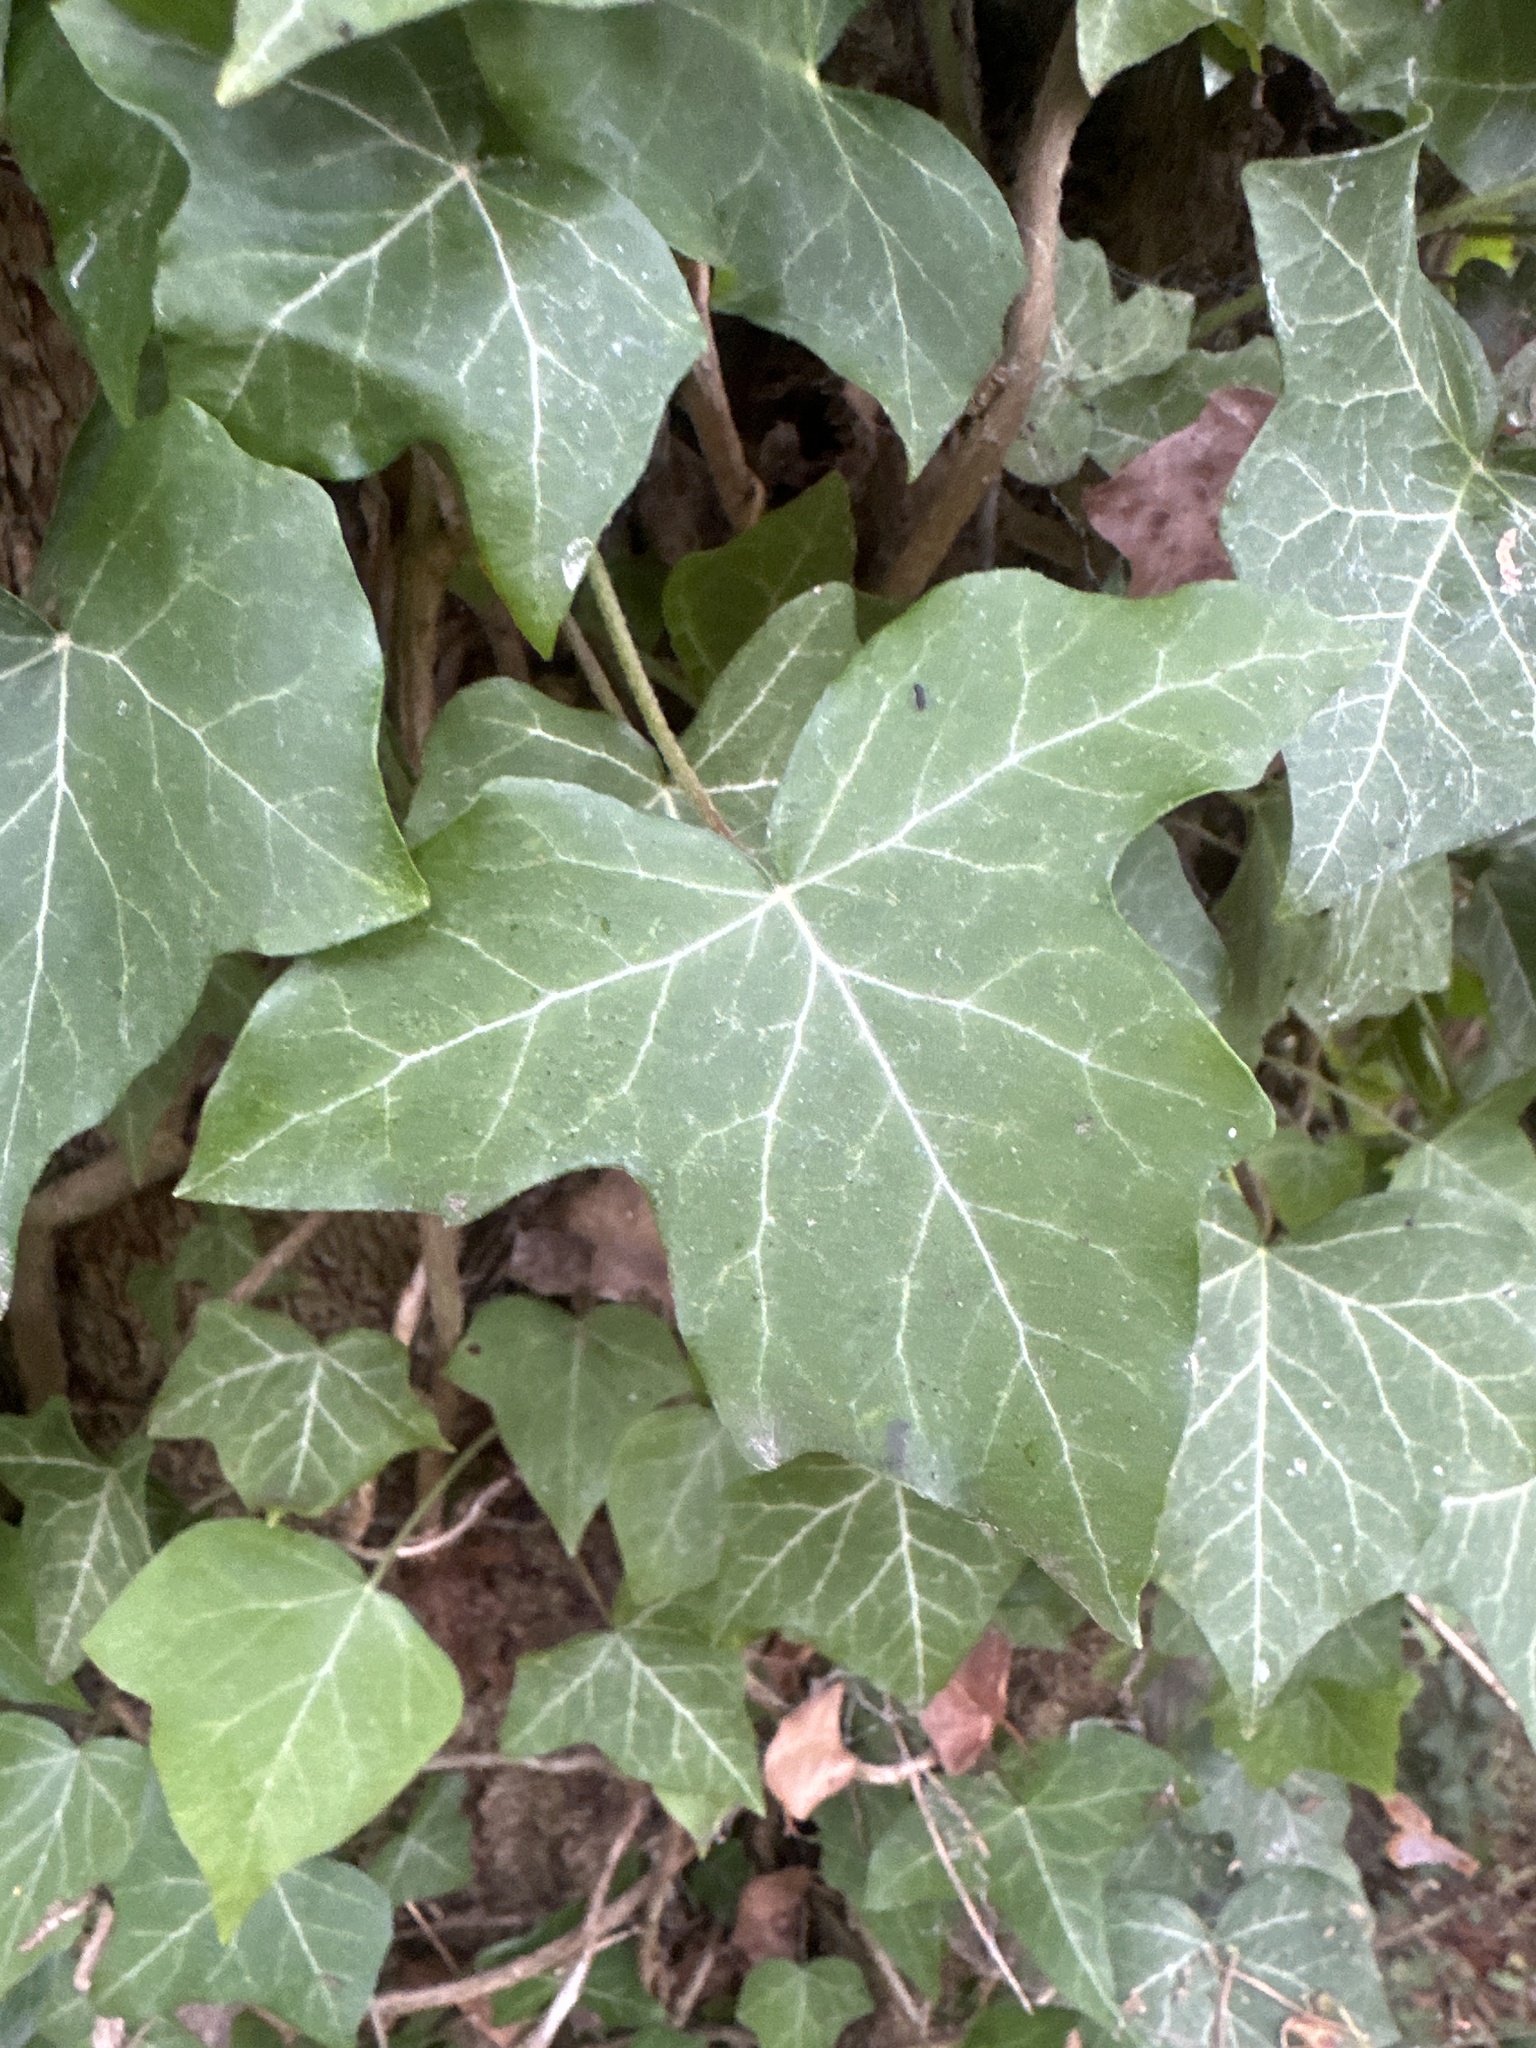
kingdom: Plantae
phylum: Tracheophyta
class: Magnoliopsida
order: Apiales
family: Araliaceae
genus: Hedera
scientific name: Hedera helix
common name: Ivy
